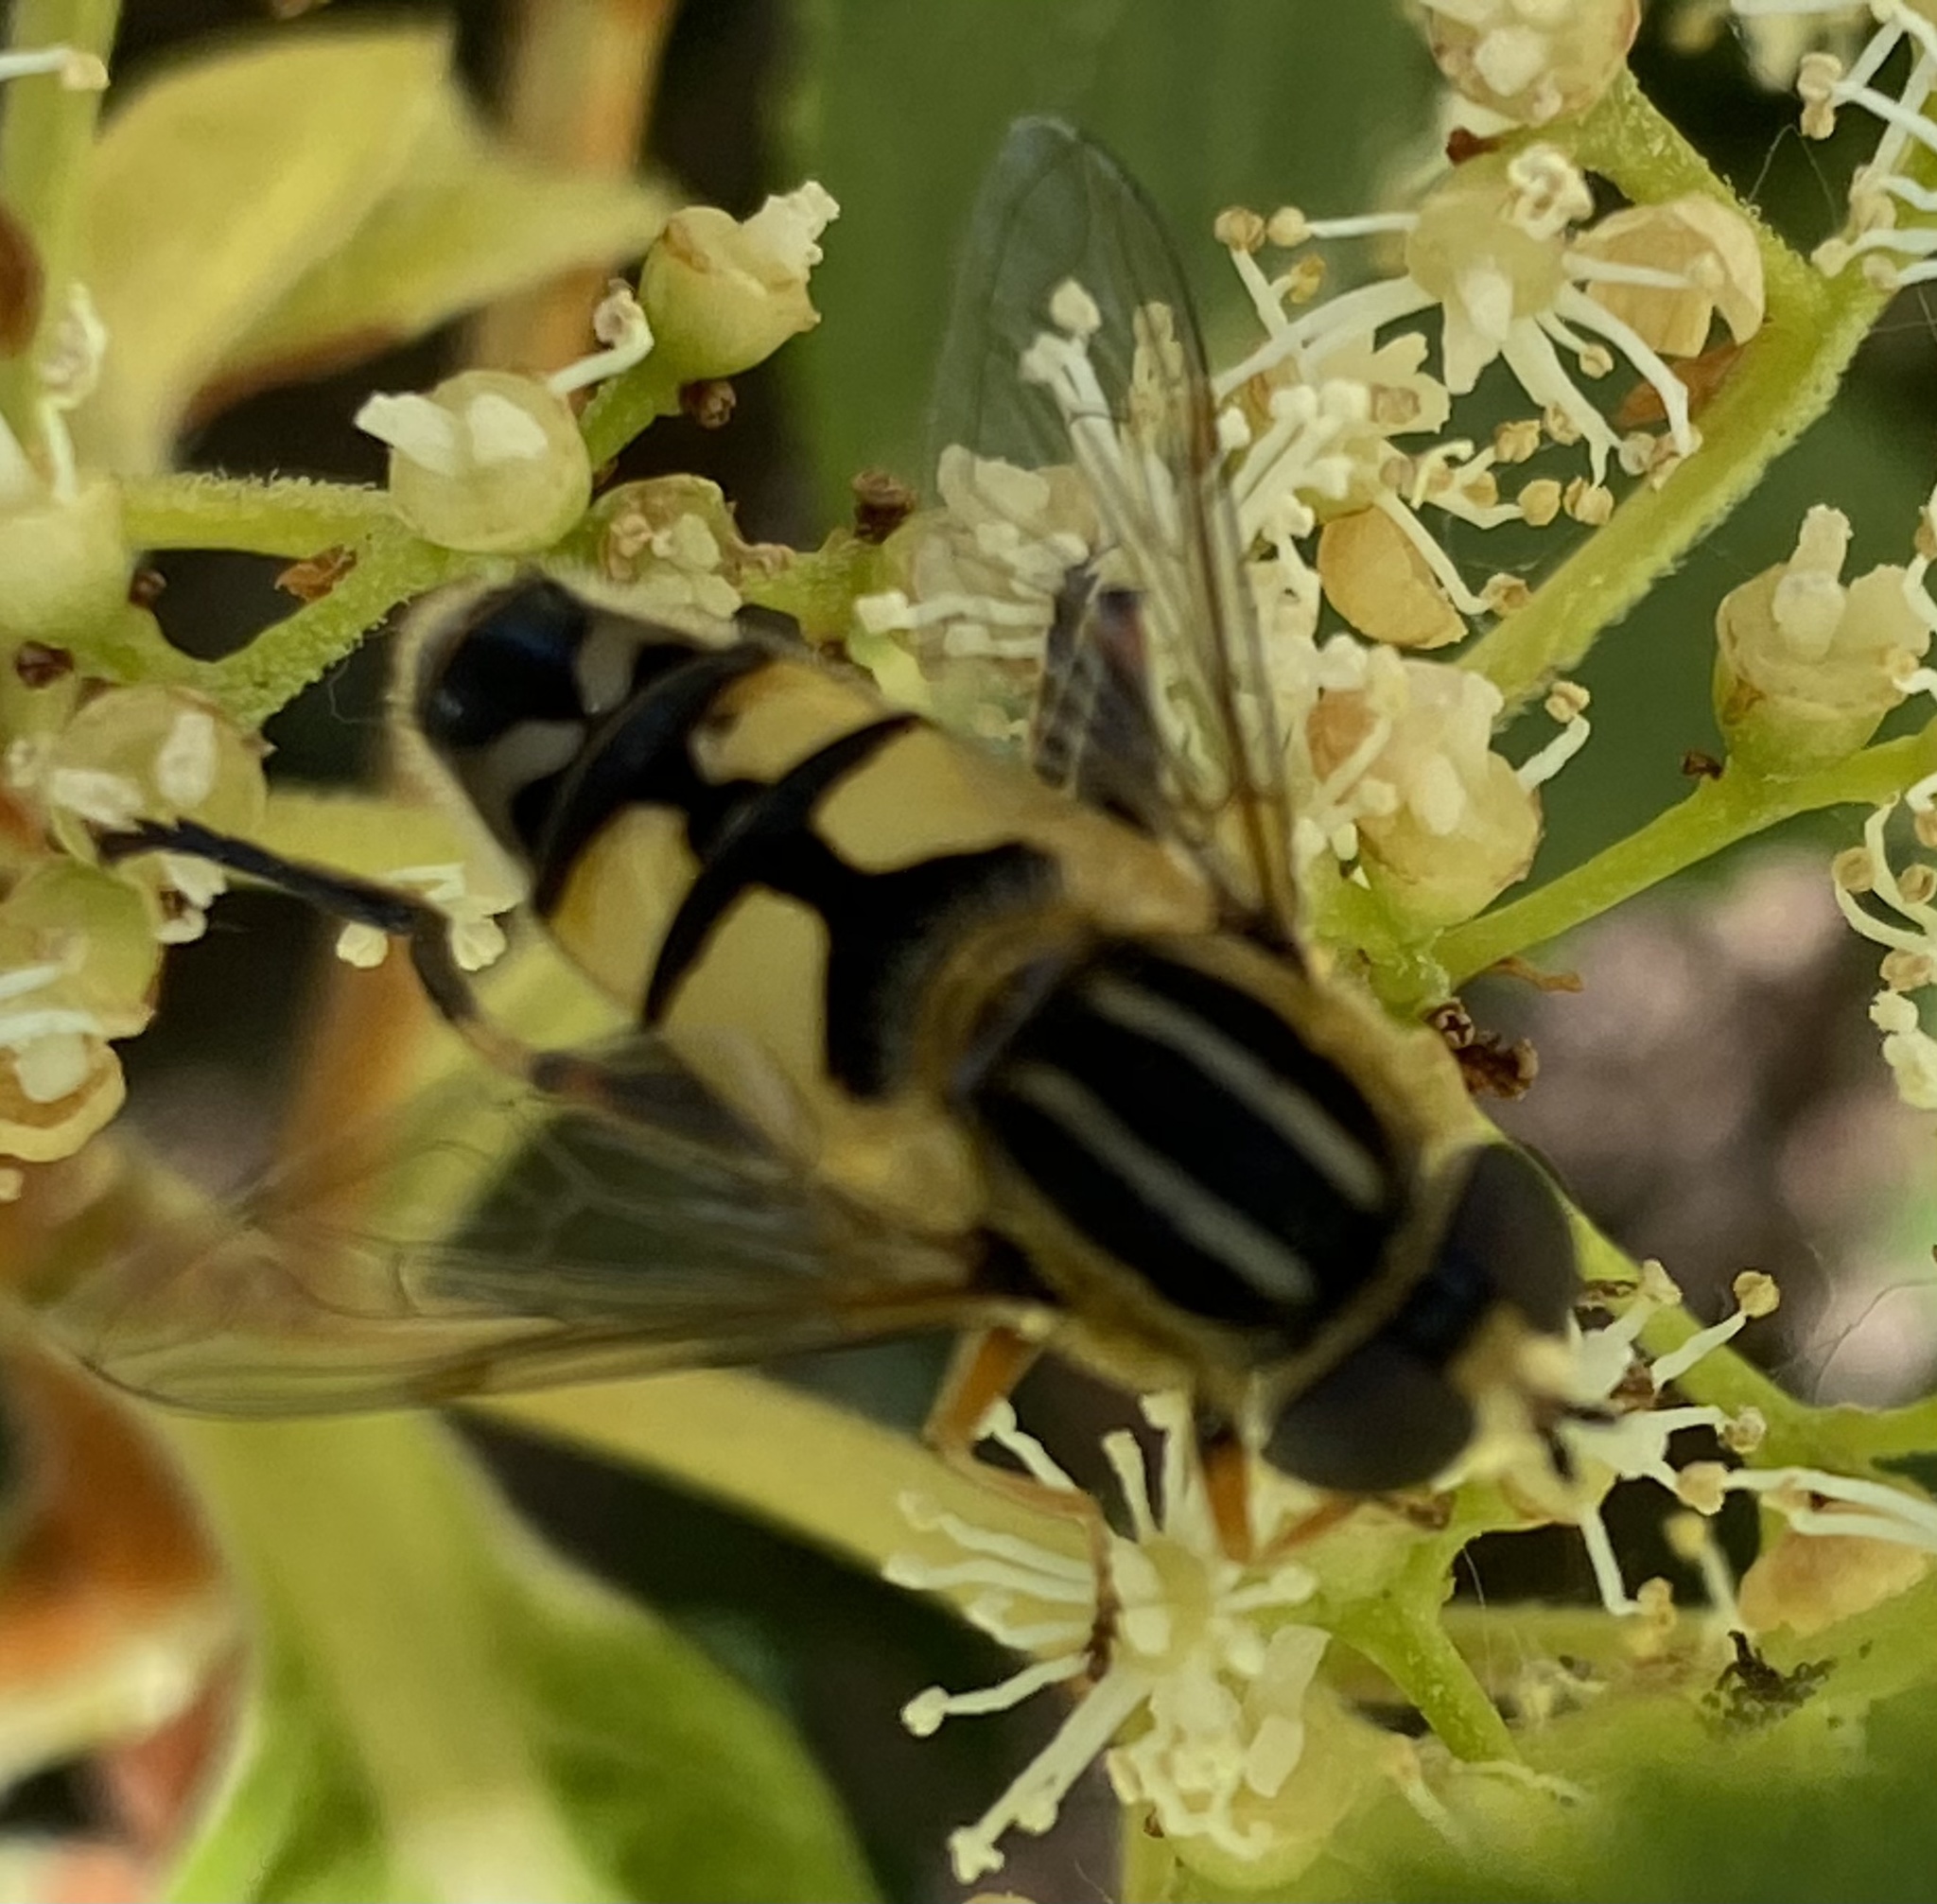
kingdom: Animalia
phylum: Arthropoda
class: Insecta
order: Diptera
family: Syrphidae
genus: Helophilus
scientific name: Helophilus trivittatus
